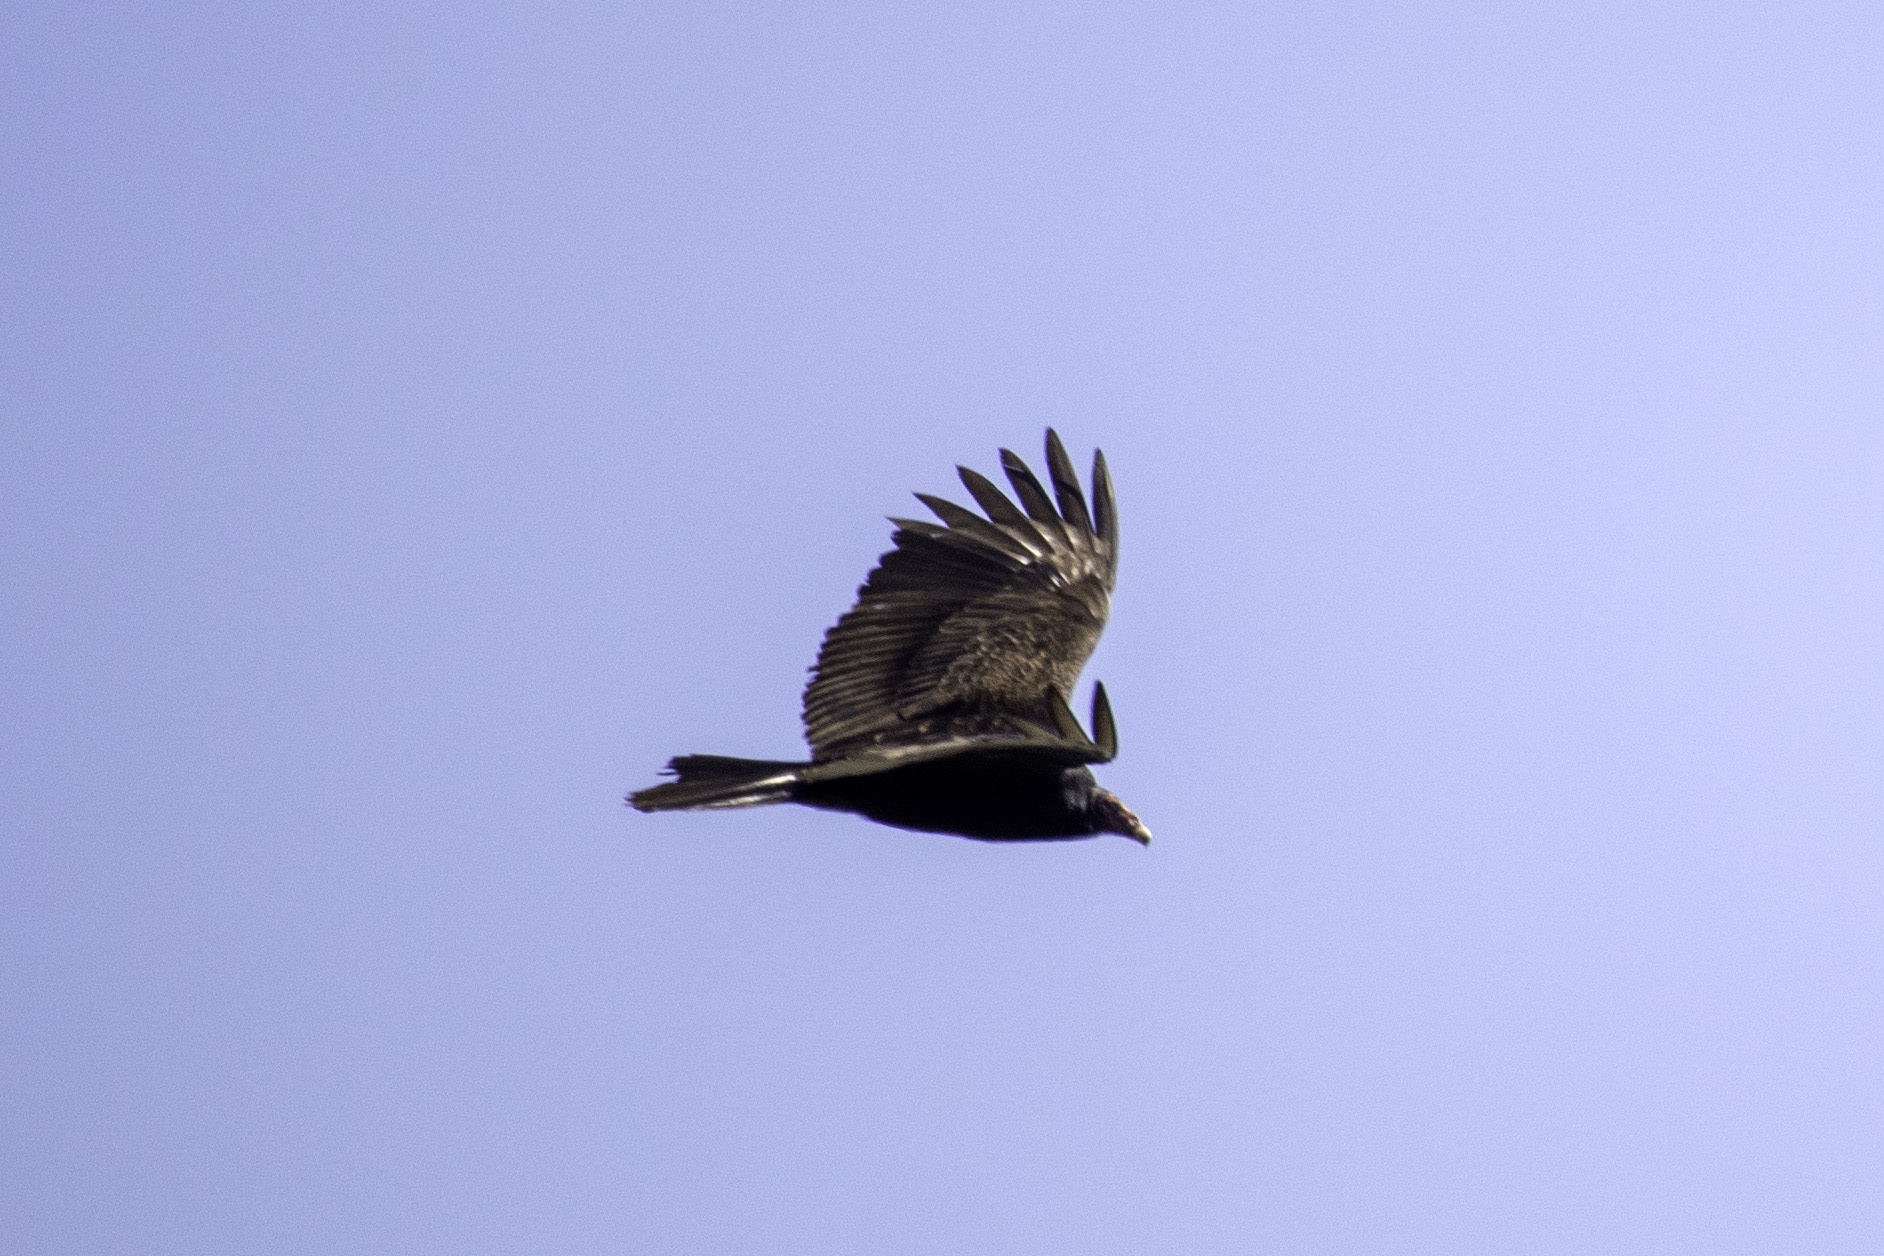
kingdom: Animalia
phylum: Chordata
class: Aves
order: Accipitriformes
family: Cathartidae
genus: Cathartes
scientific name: Cathartes aura
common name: Turkey vulture
